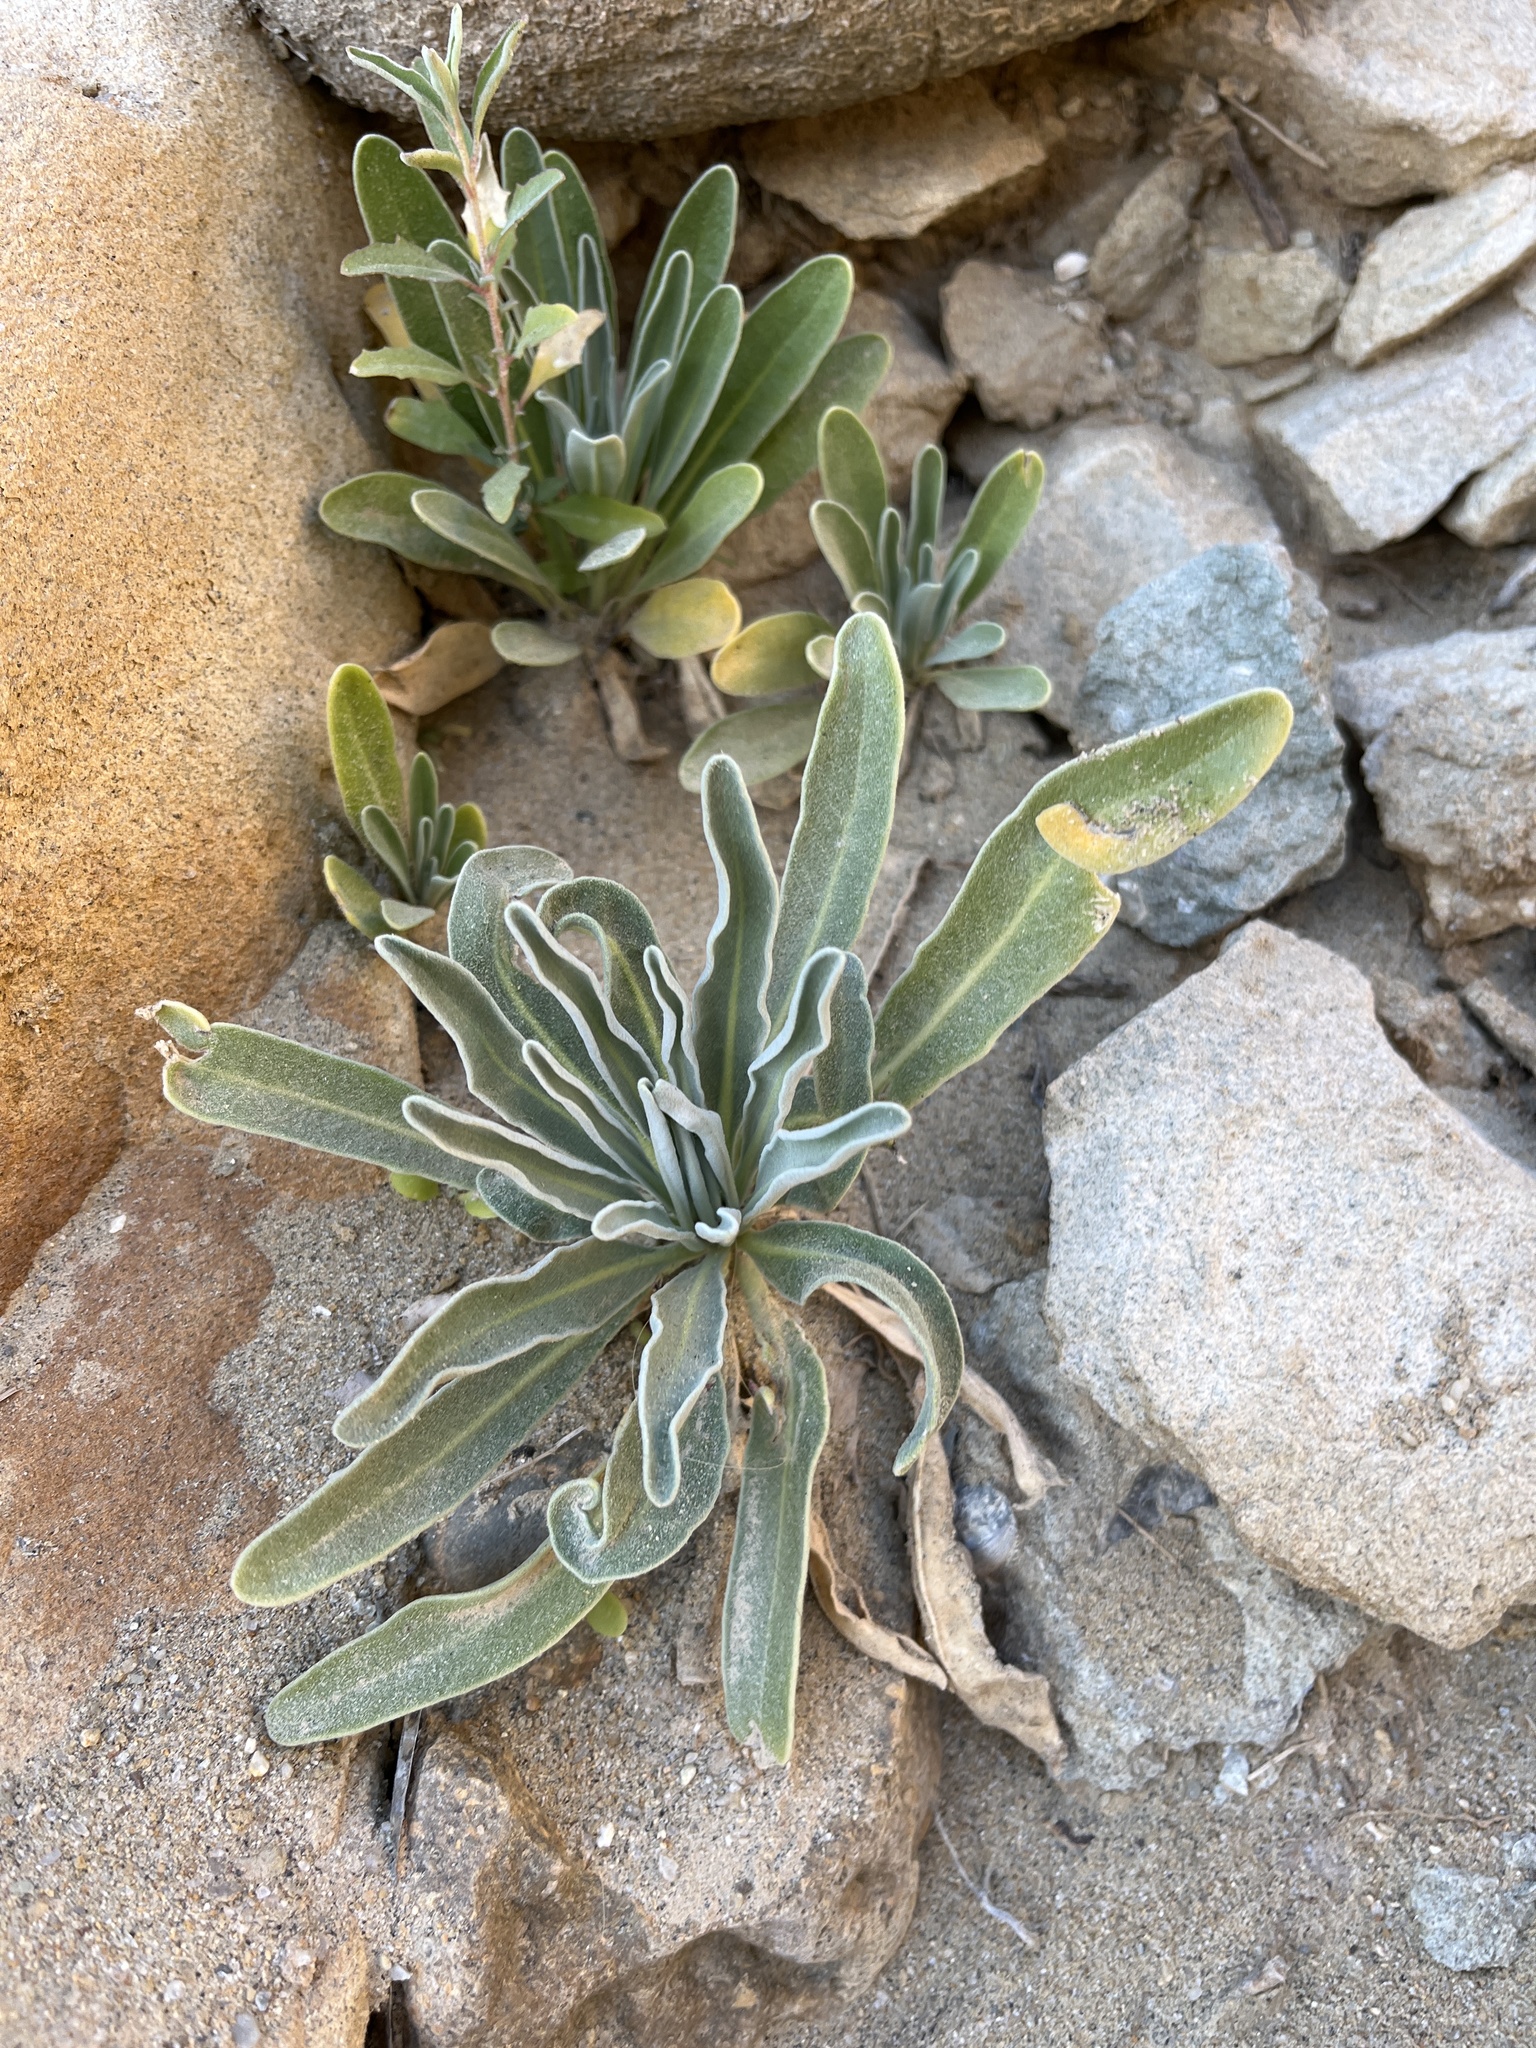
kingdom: Plantae
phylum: Tracheophyta
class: Magnoliopsida
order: Brassicales
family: Brassicaceae
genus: Matthiola
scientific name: Matthiola incana
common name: Hoary stock
